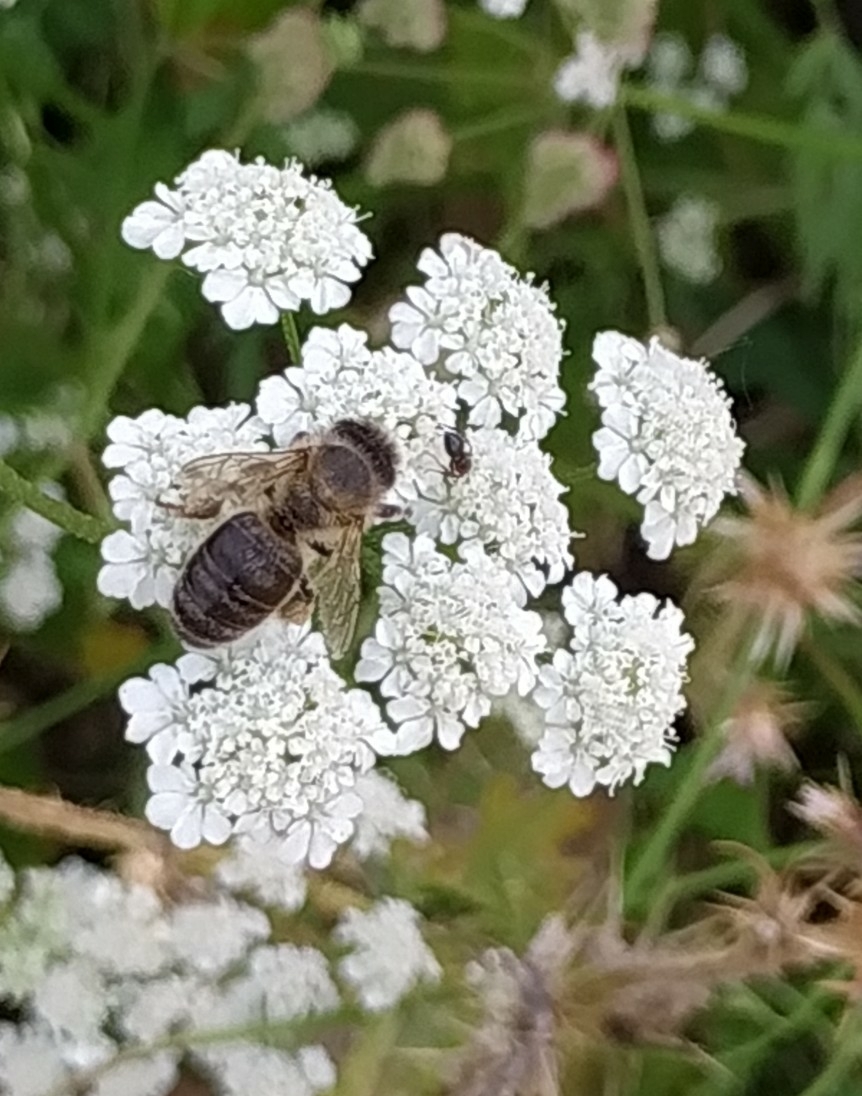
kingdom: Animalia
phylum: Arthropoda
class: Insecta
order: Hymenoptera
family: Apidae
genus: Apis
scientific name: Apis mellifera
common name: Honey bee
